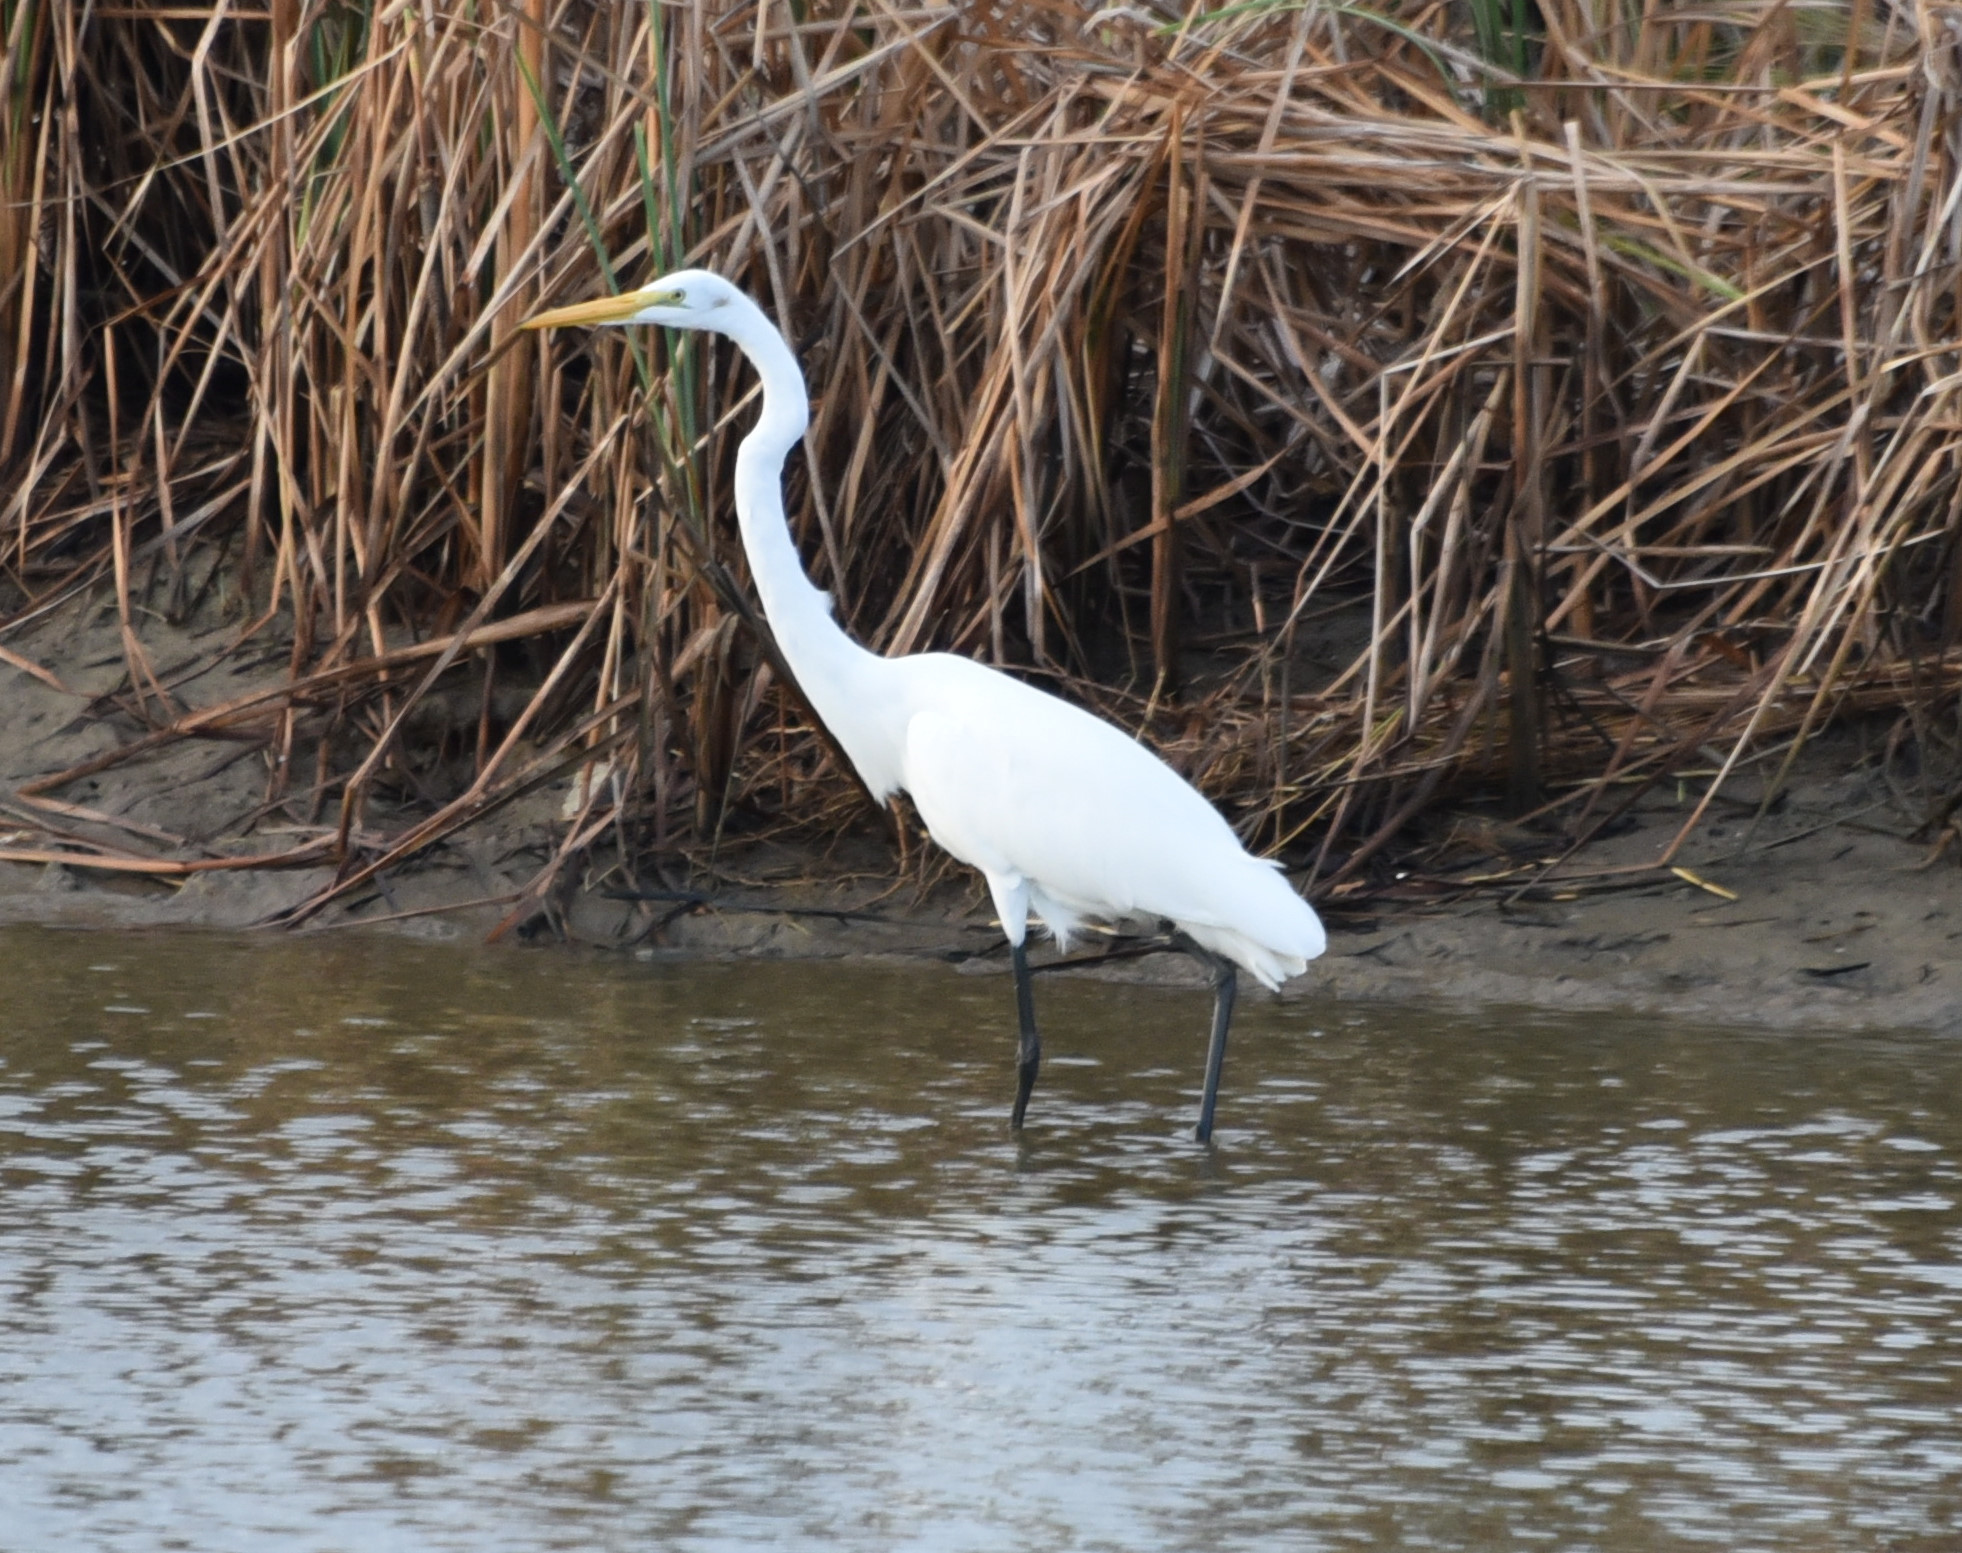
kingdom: Animalia
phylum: Chordata
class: Aves
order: Pelecaniformes
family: Ardeidae
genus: Ardea
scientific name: Ardea alba
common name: Great egret
